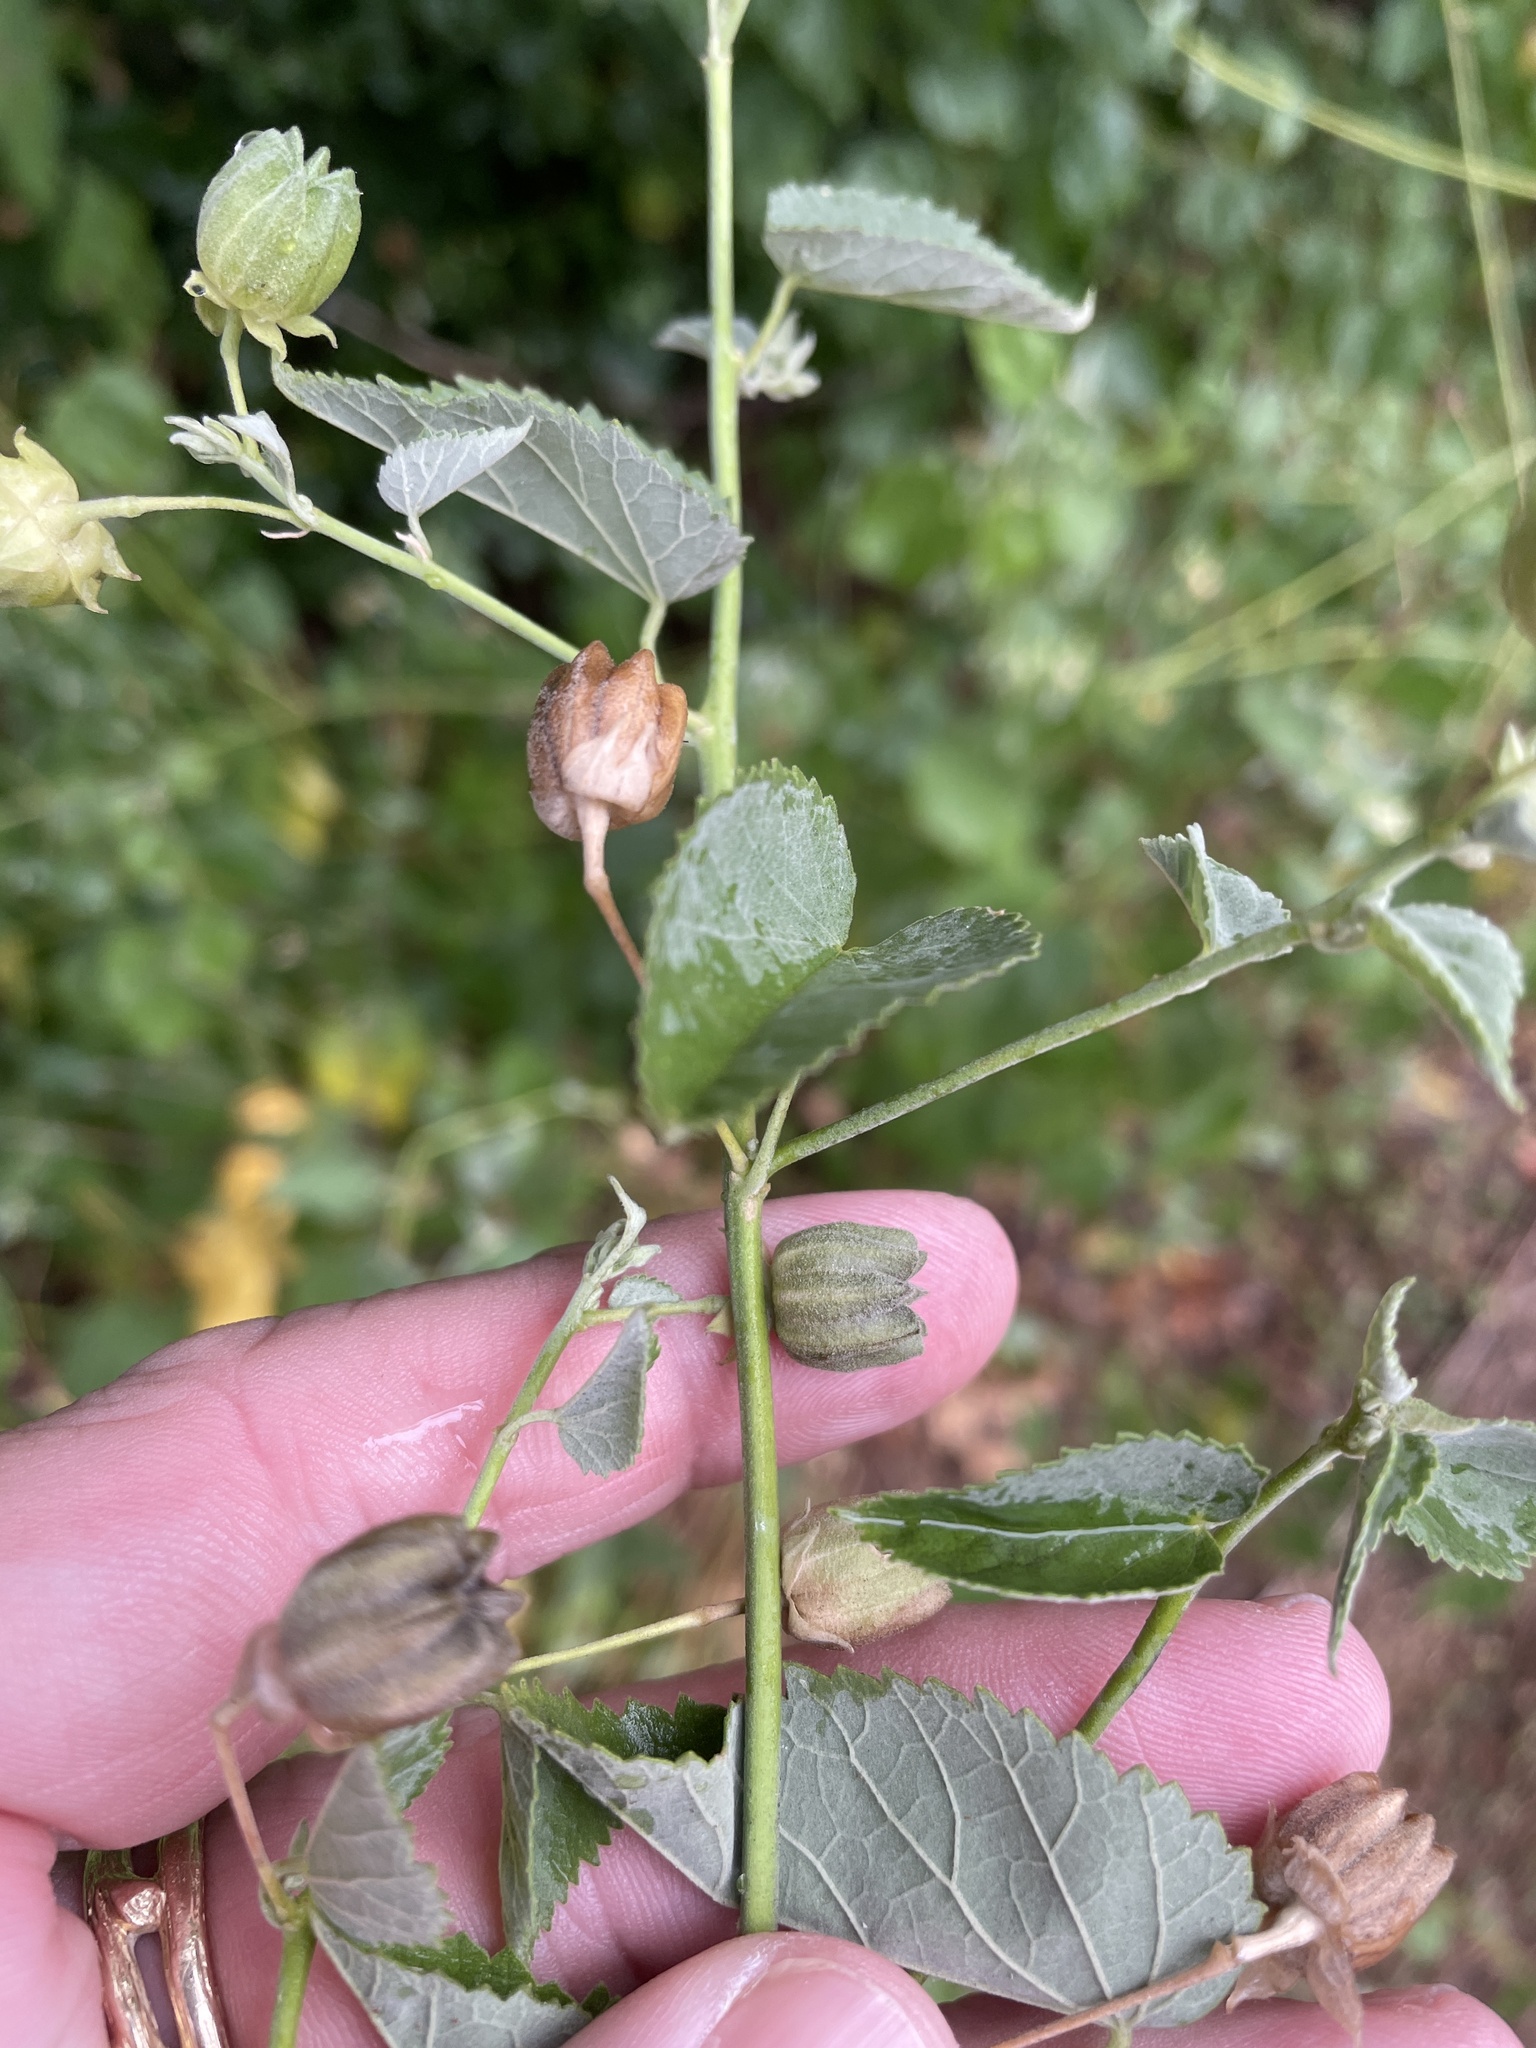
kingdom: Plantae
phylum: Tracheophyta
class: Magnoliopsida
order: Malvales
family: Malvaceae
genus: Abutilon
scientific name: Abutilon fruticosum
